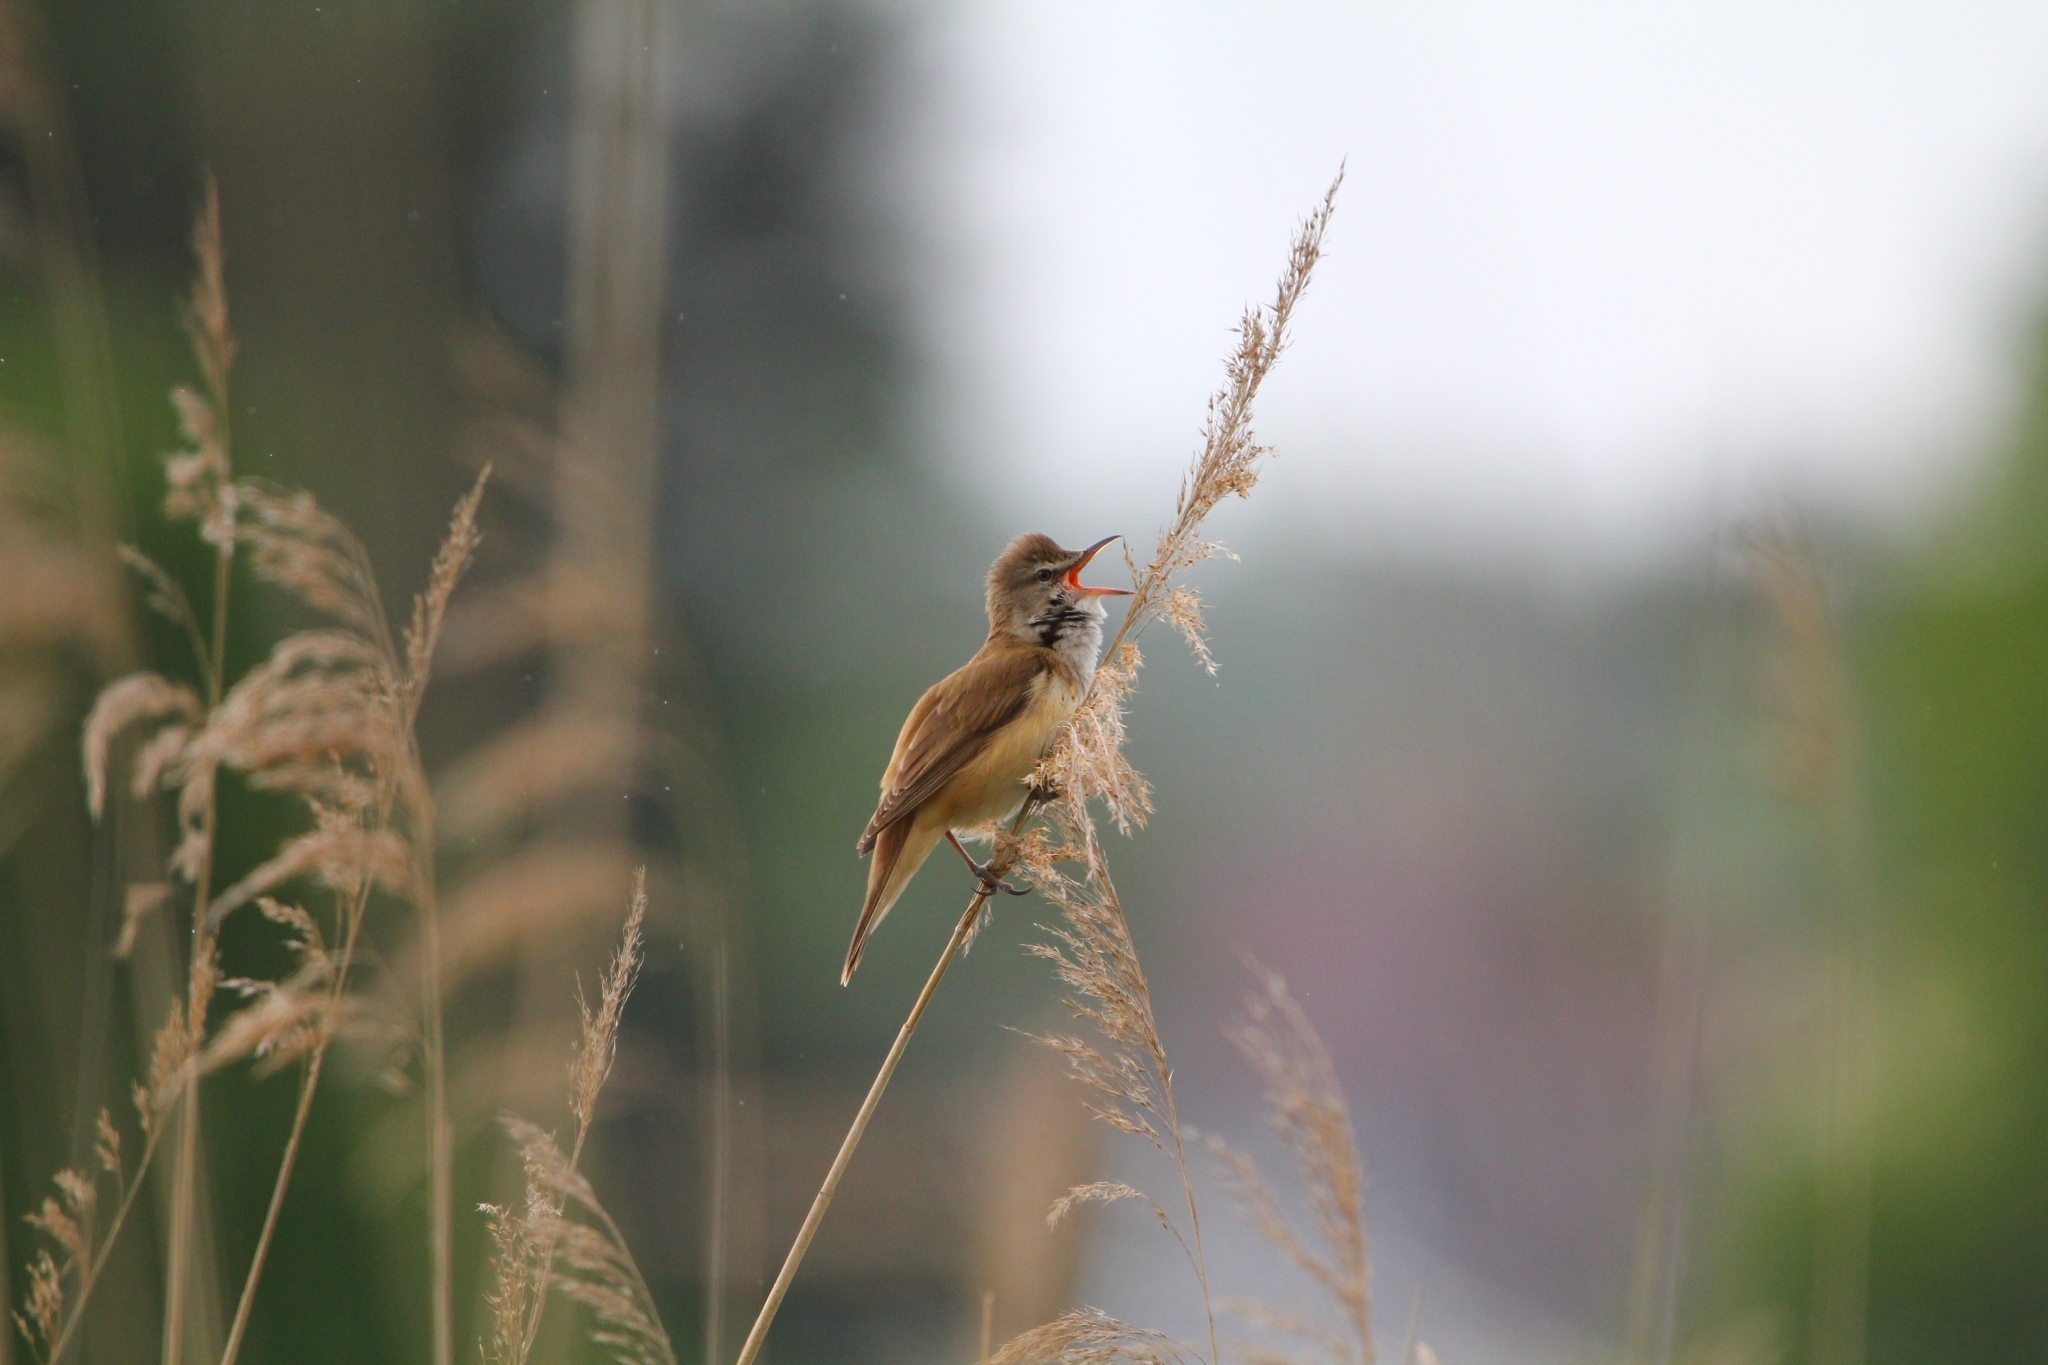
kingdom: Animalia
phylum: Chordata
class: Aves
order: Passeriformes
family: Acrocephalidae
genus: Acrocephalus
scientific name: Acrocephalus arundinaceus
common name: Great reed warbler
